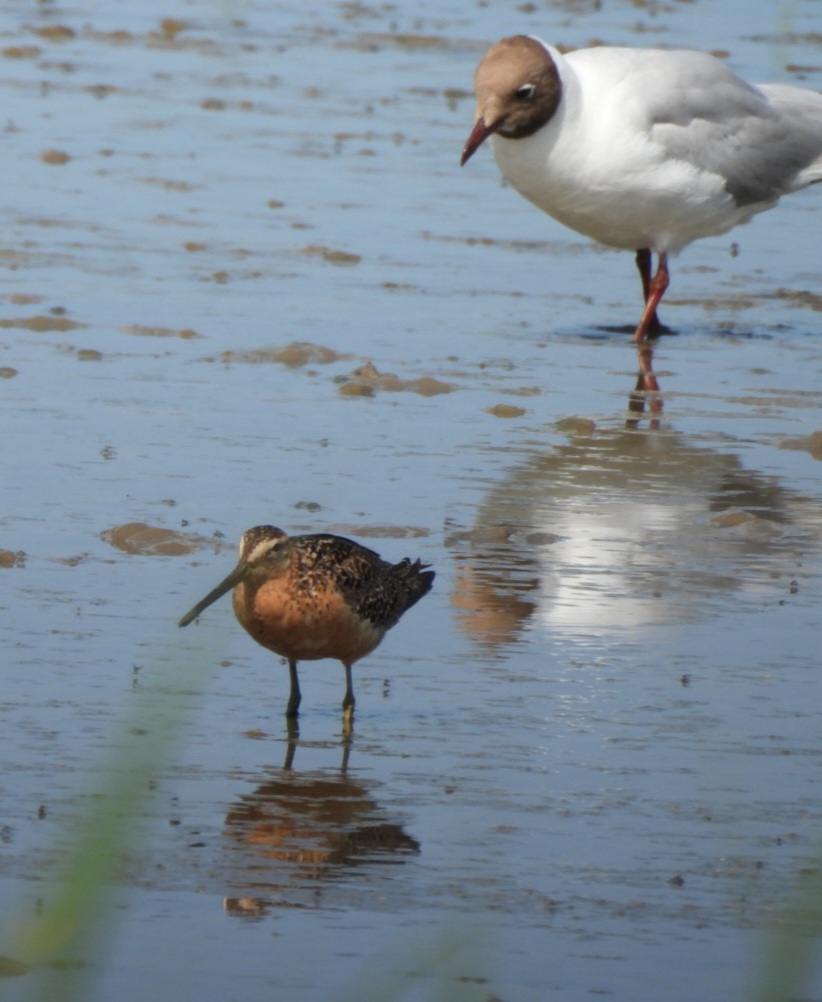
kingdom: Animalia
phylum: Chordata
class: Aves
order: Charadriiformes
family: Scolopacidae
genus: Limnodromus
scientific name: Limnodromus scolopaceus
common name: Long-billed dowitcher
